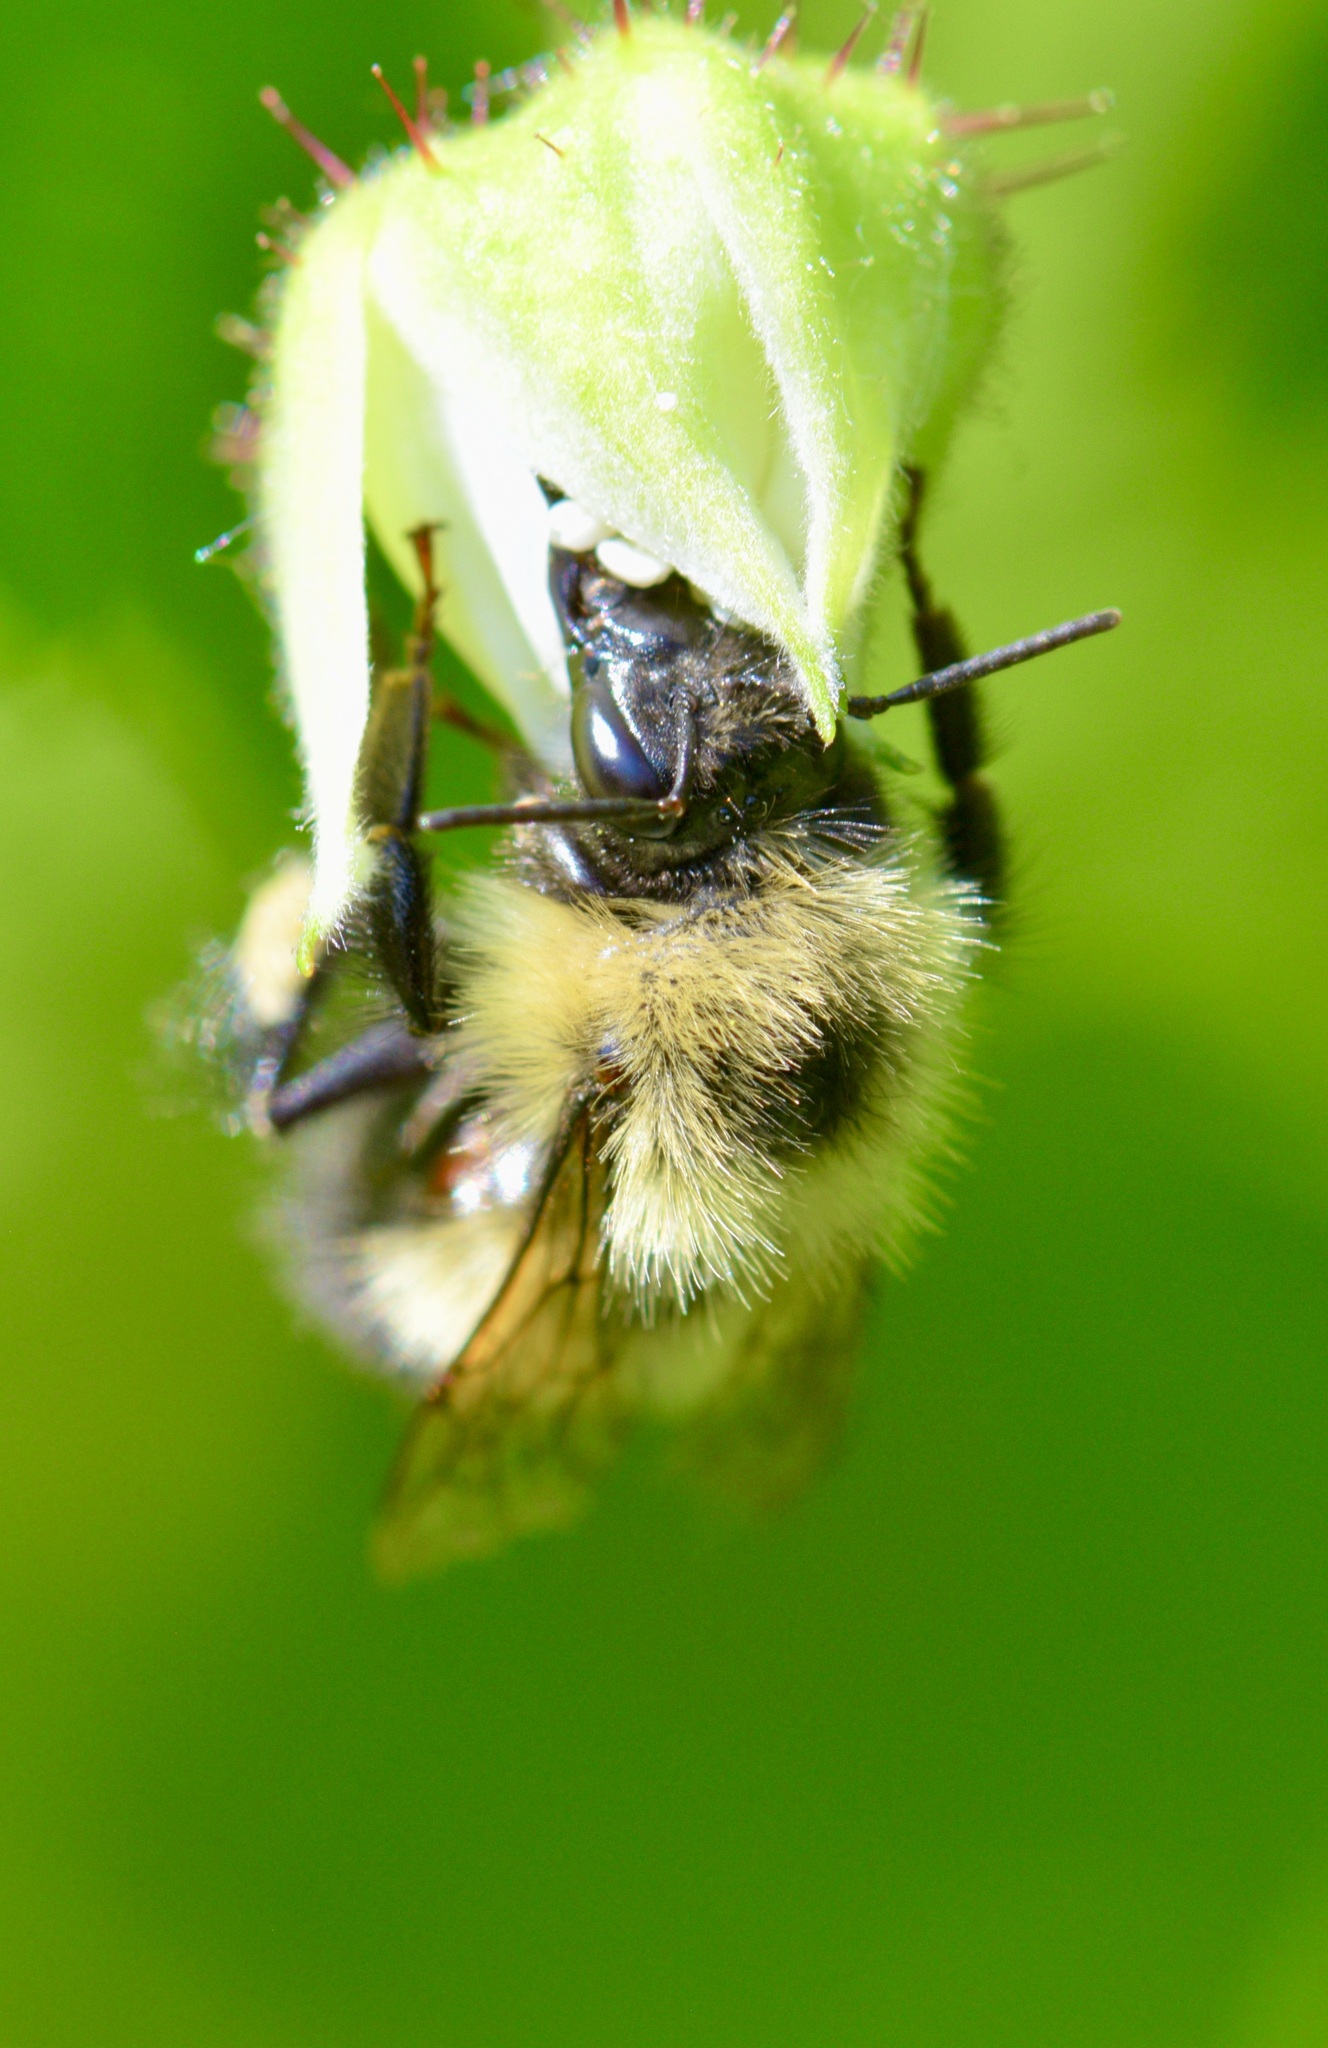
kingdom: Animalia
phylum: Arthropoda
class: Insecta
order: Hymenoptera
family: Apidae
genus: Pyrobombus
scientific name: Pyrobombus
